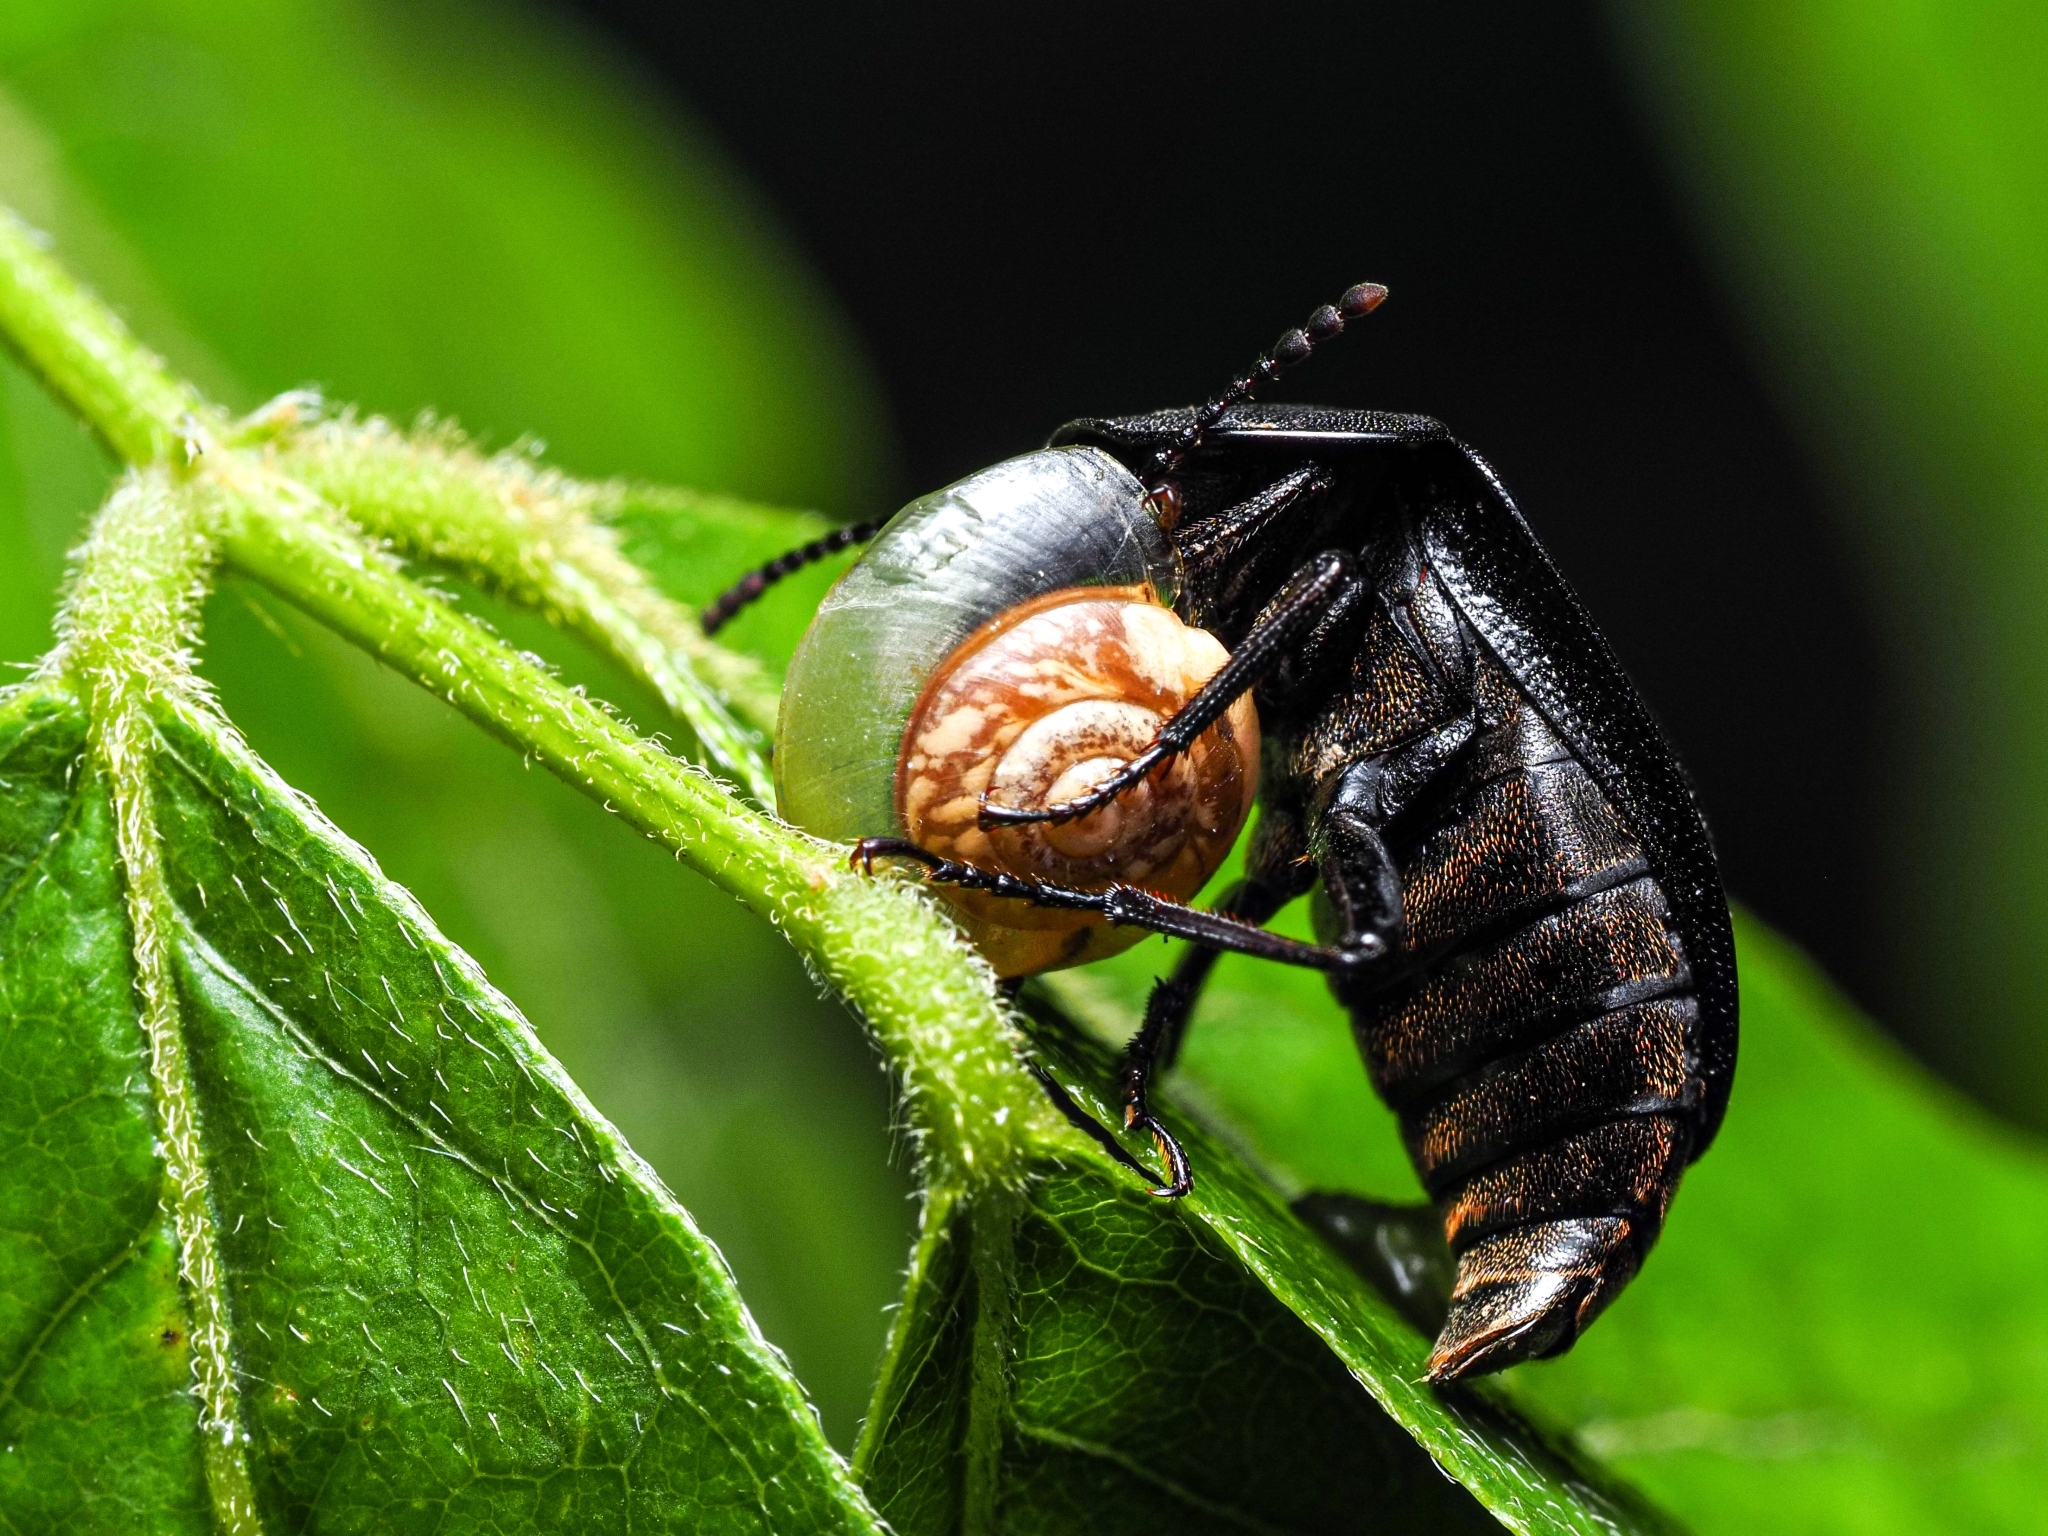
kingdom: Animalia
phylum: Arthropoda
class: Insecta
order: Coleoptera
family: Staphylinidae
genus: Silpha
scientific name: Silpha atrata
